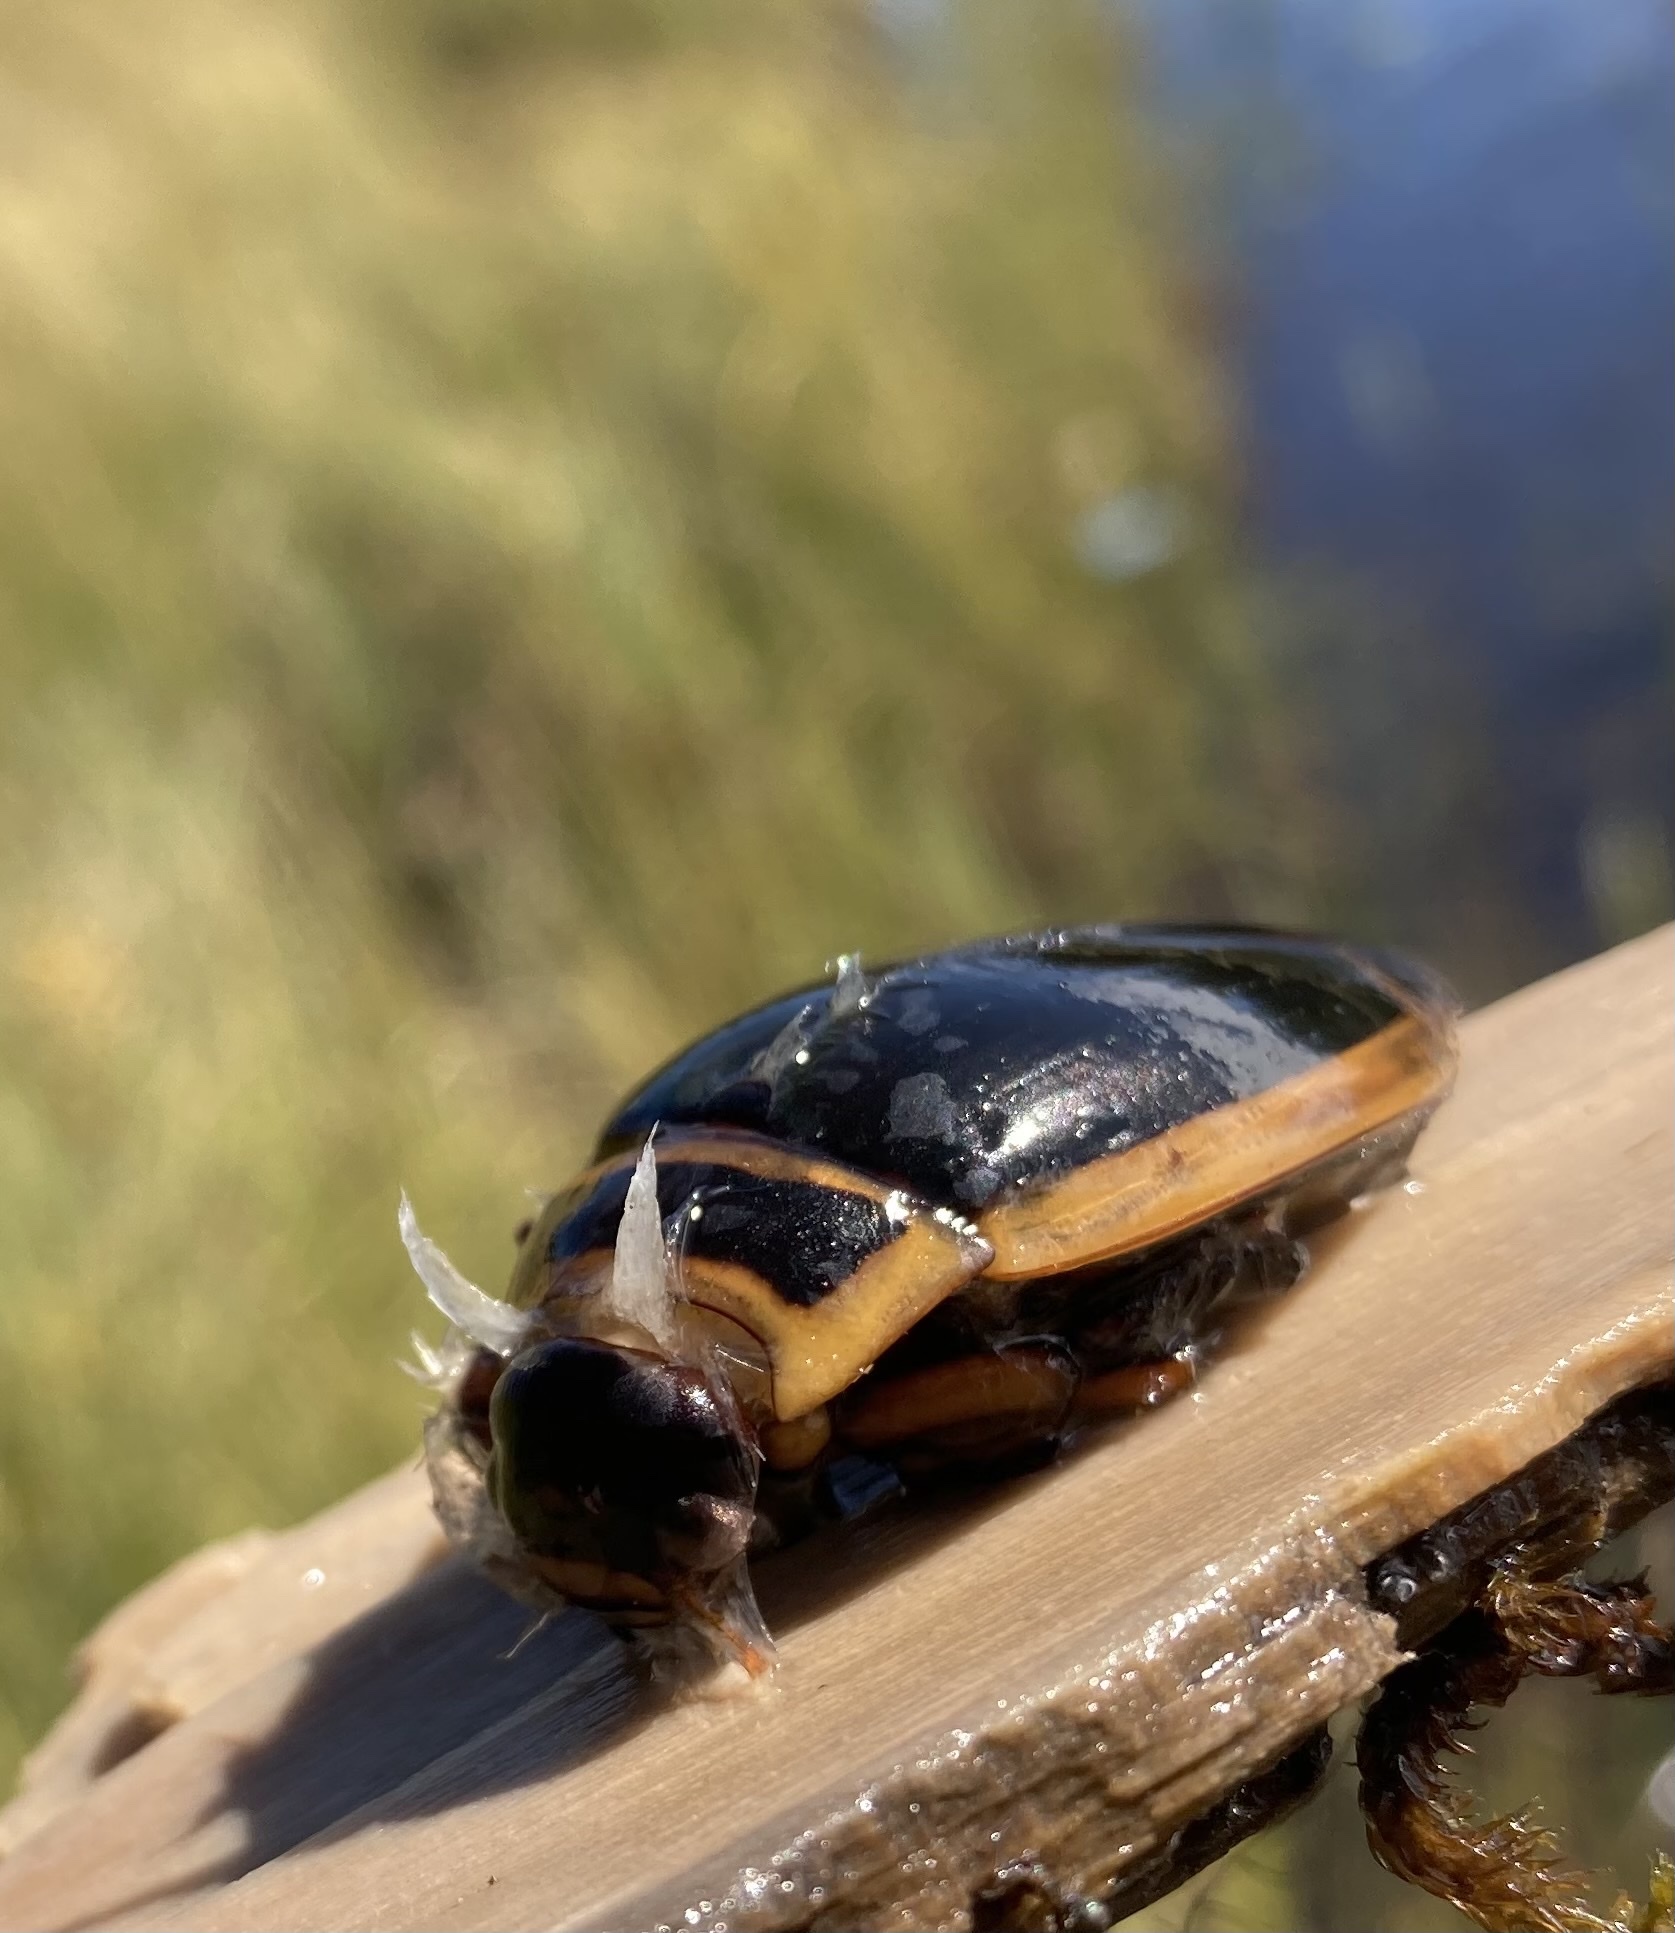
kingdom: Animalia
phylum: Arthropoda
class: Insecta
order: Coleoptera
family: Dytiscidae
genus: Dytiscus
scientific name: Dytiscus harrisii
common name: Harris's diving beetle
